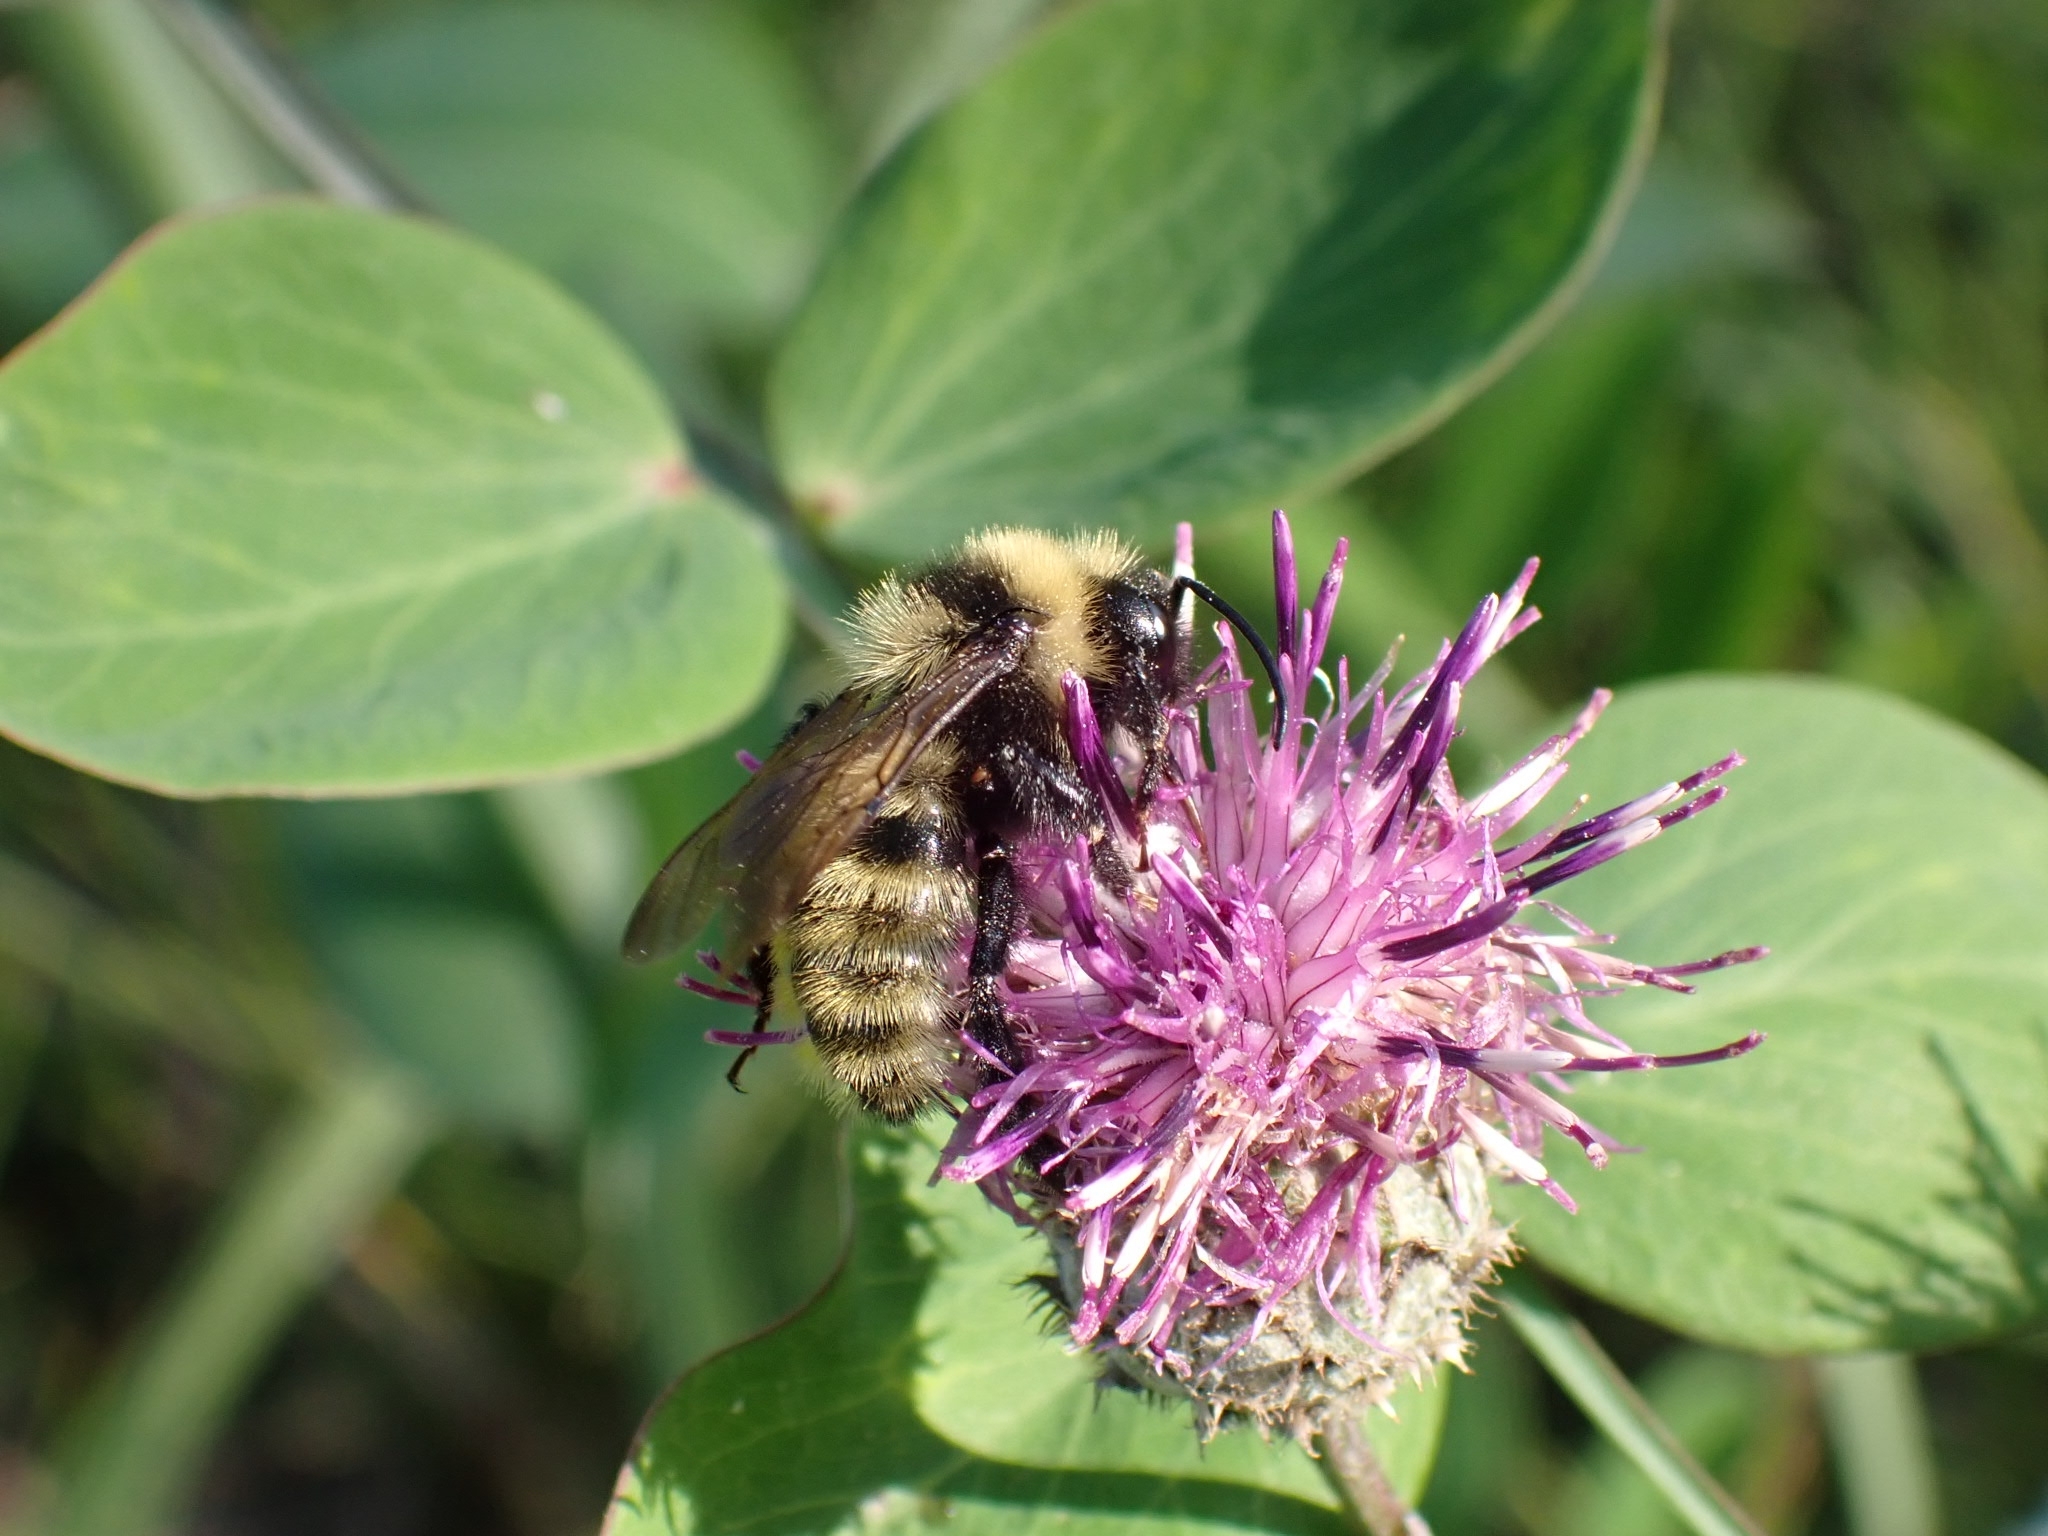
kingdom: Animalia
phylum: Arthropoda
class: Insecta
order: Hymenoptera
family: Apidae
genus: Bombus
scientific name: Bombus campestris
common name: Field cuckoo-bee
